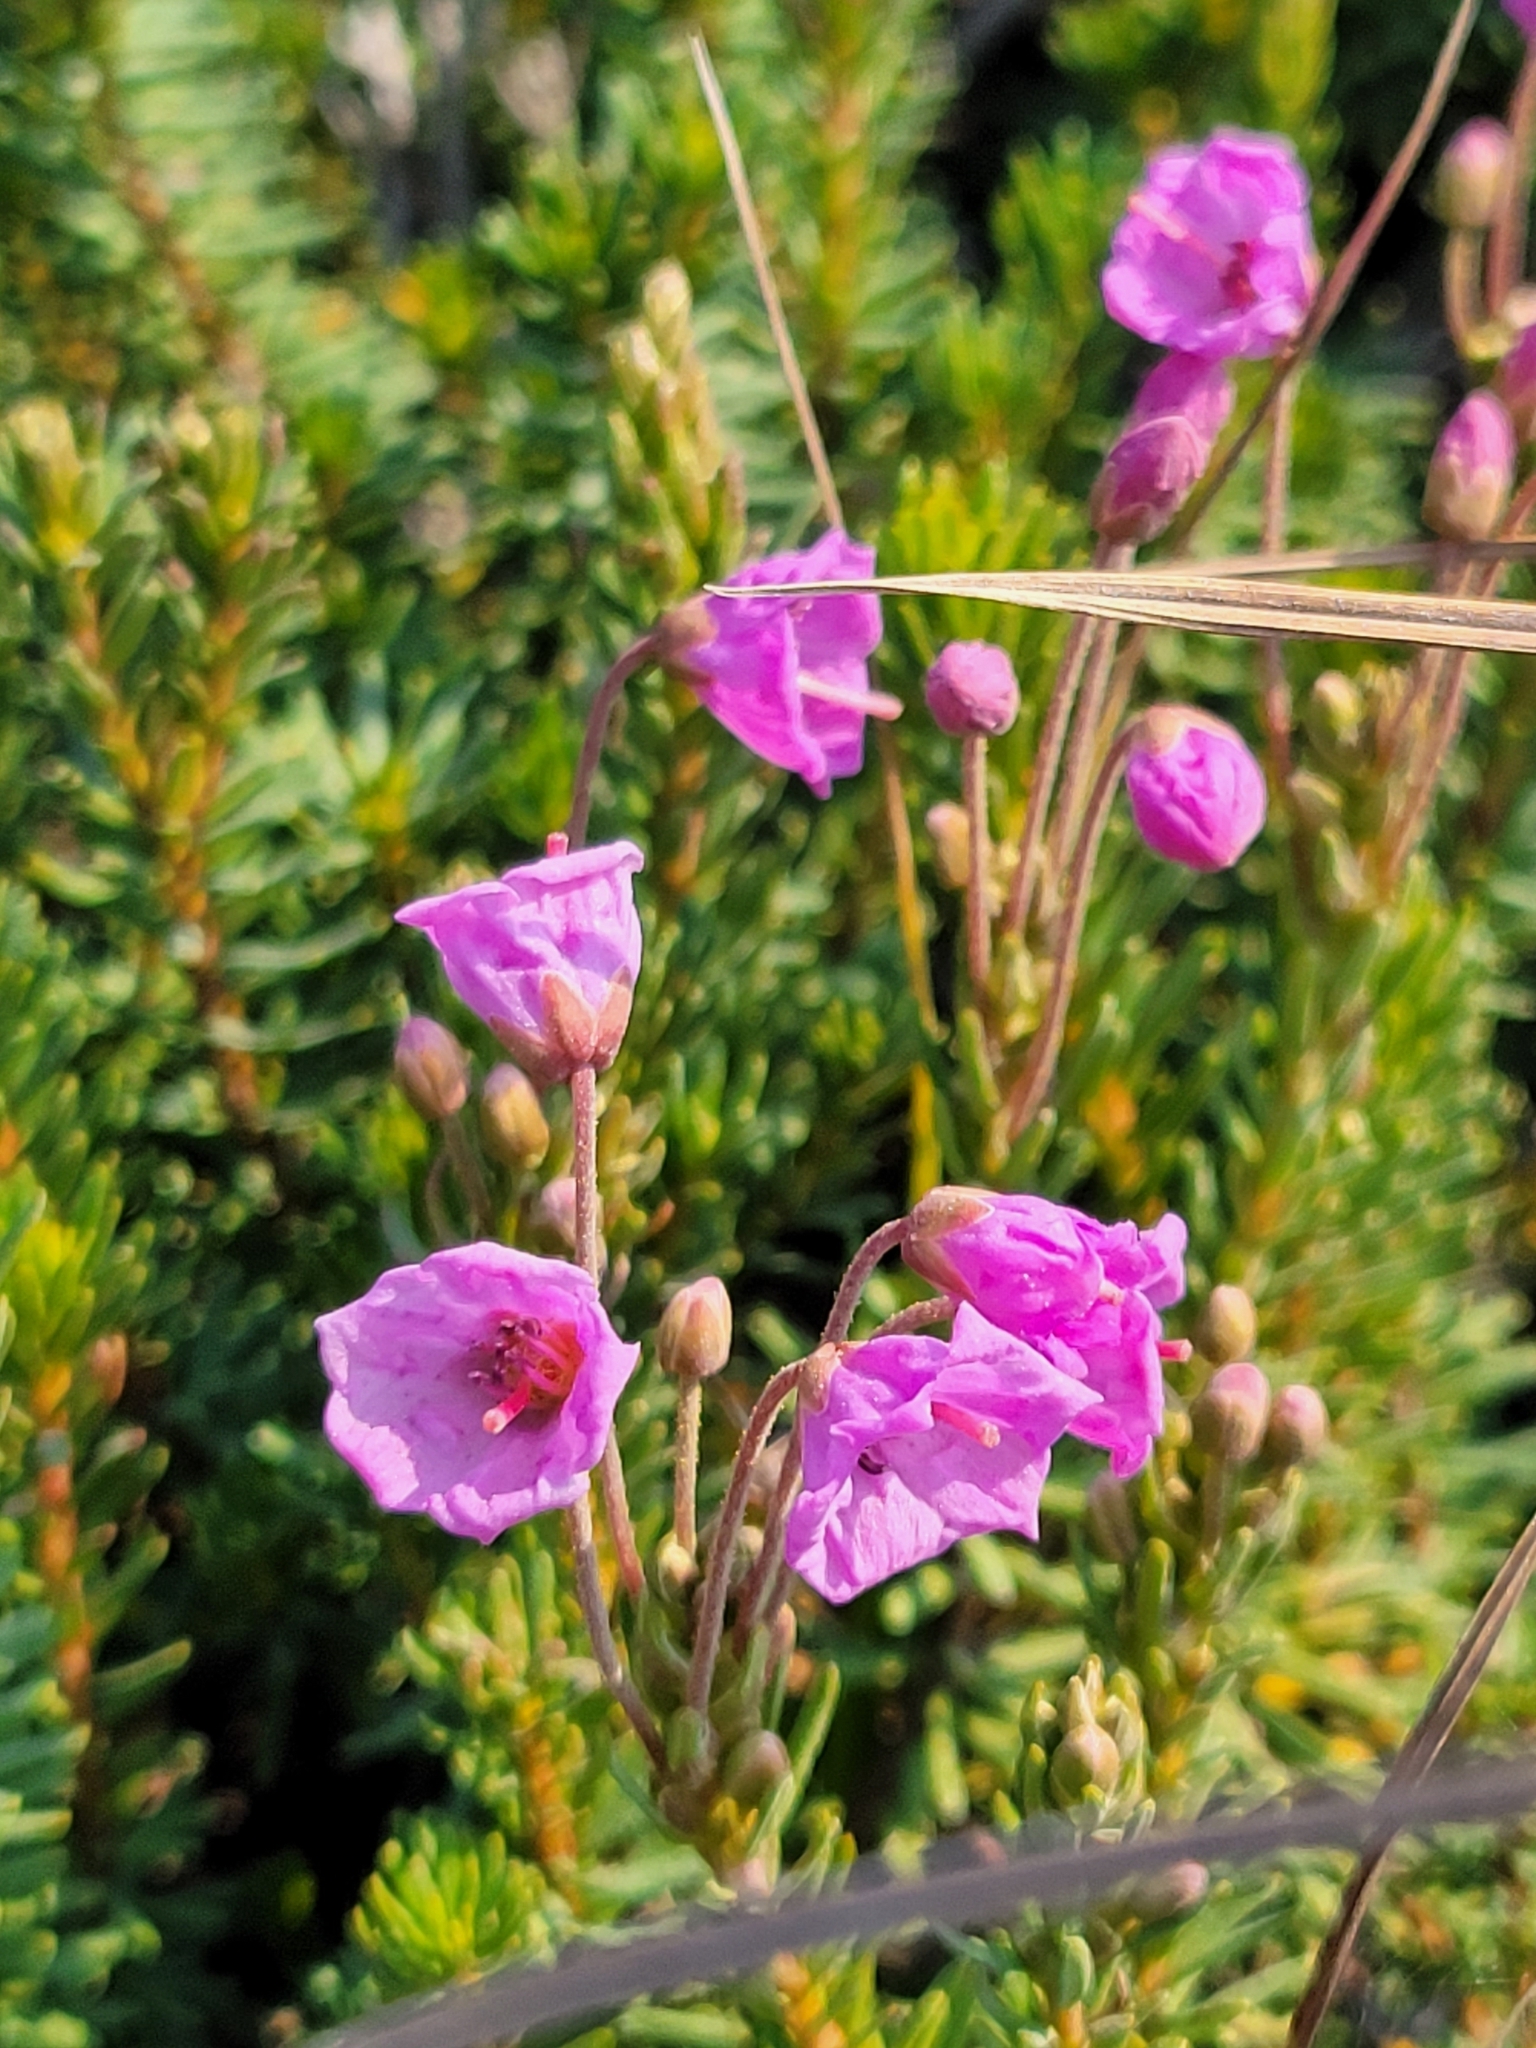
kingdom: Plantae
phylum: Tracheophyta
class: Magnoliopsida
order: Ericales
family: Ericaceae
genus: Phyllodoce
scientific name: Phyllodoce empetriformis
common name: Pink mountain heather
